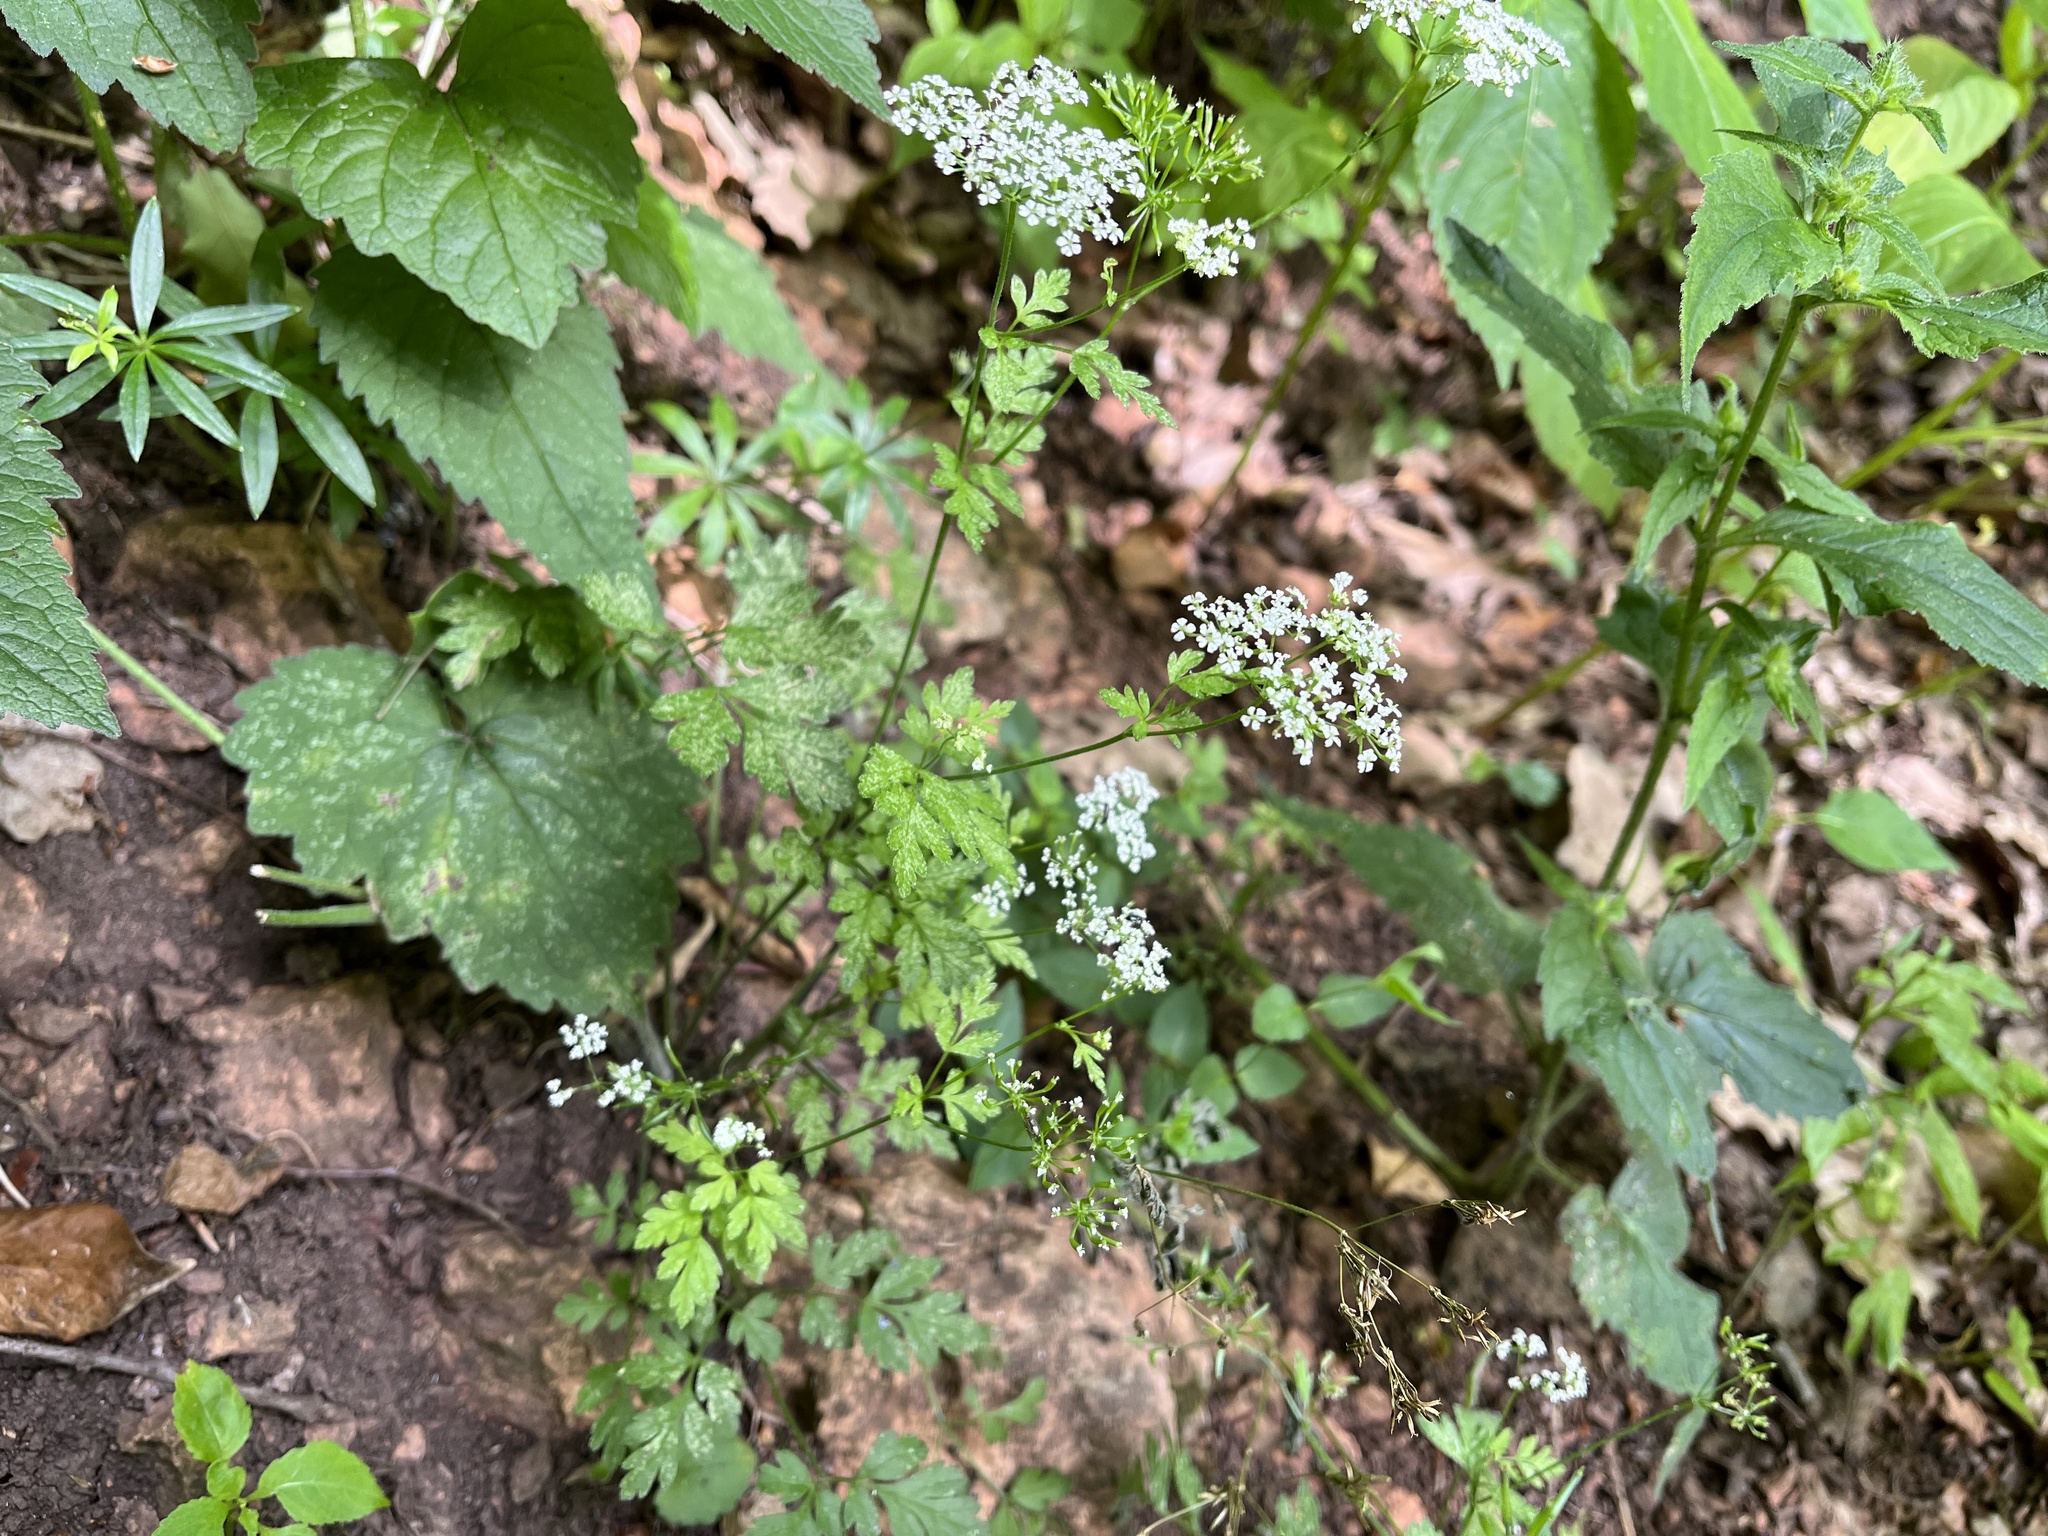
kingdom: Plantae
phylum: Tracheophyta
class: Magnoliopsida
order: Apiales
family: Apiaceae
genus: Chaerophyllum
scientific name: Chaerophyllum temulum
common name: Rough chervil
